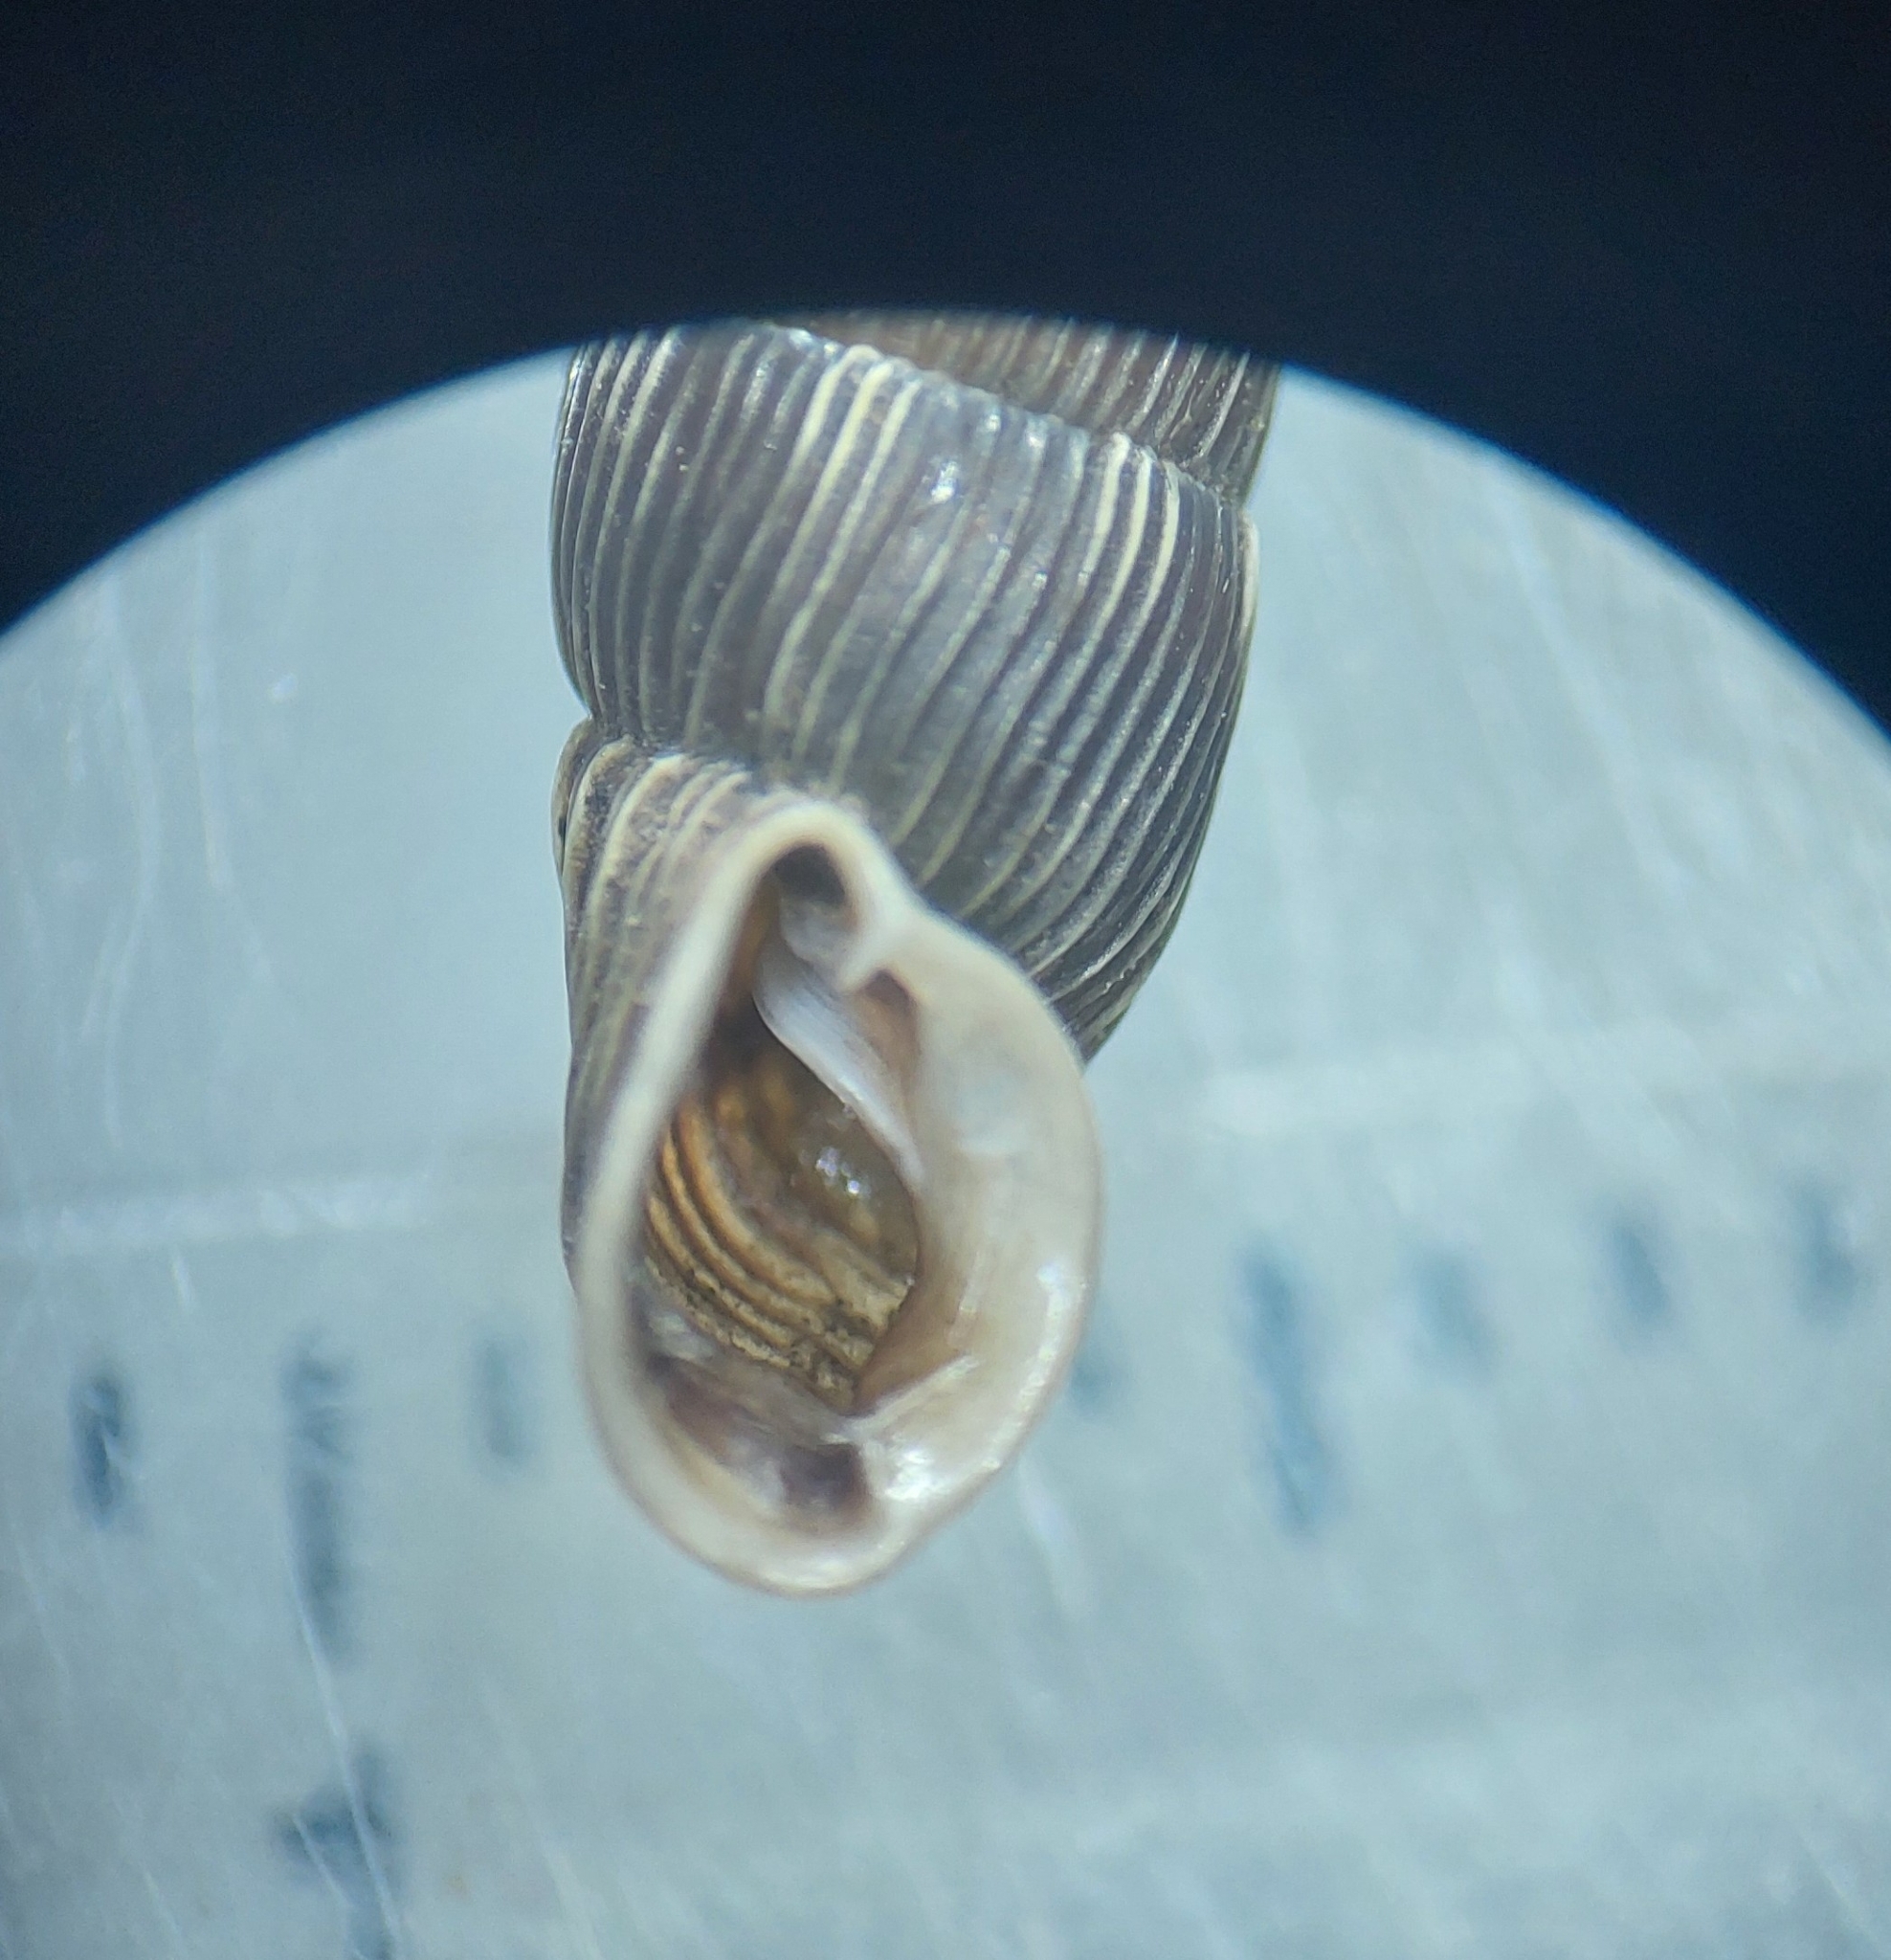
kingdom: Animalia
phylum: Mollusca
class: Gastropoda
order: Stylommatophora
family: Clausiliidae
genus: Alinda
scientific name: Alinda biplicata
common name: Thames door snail
